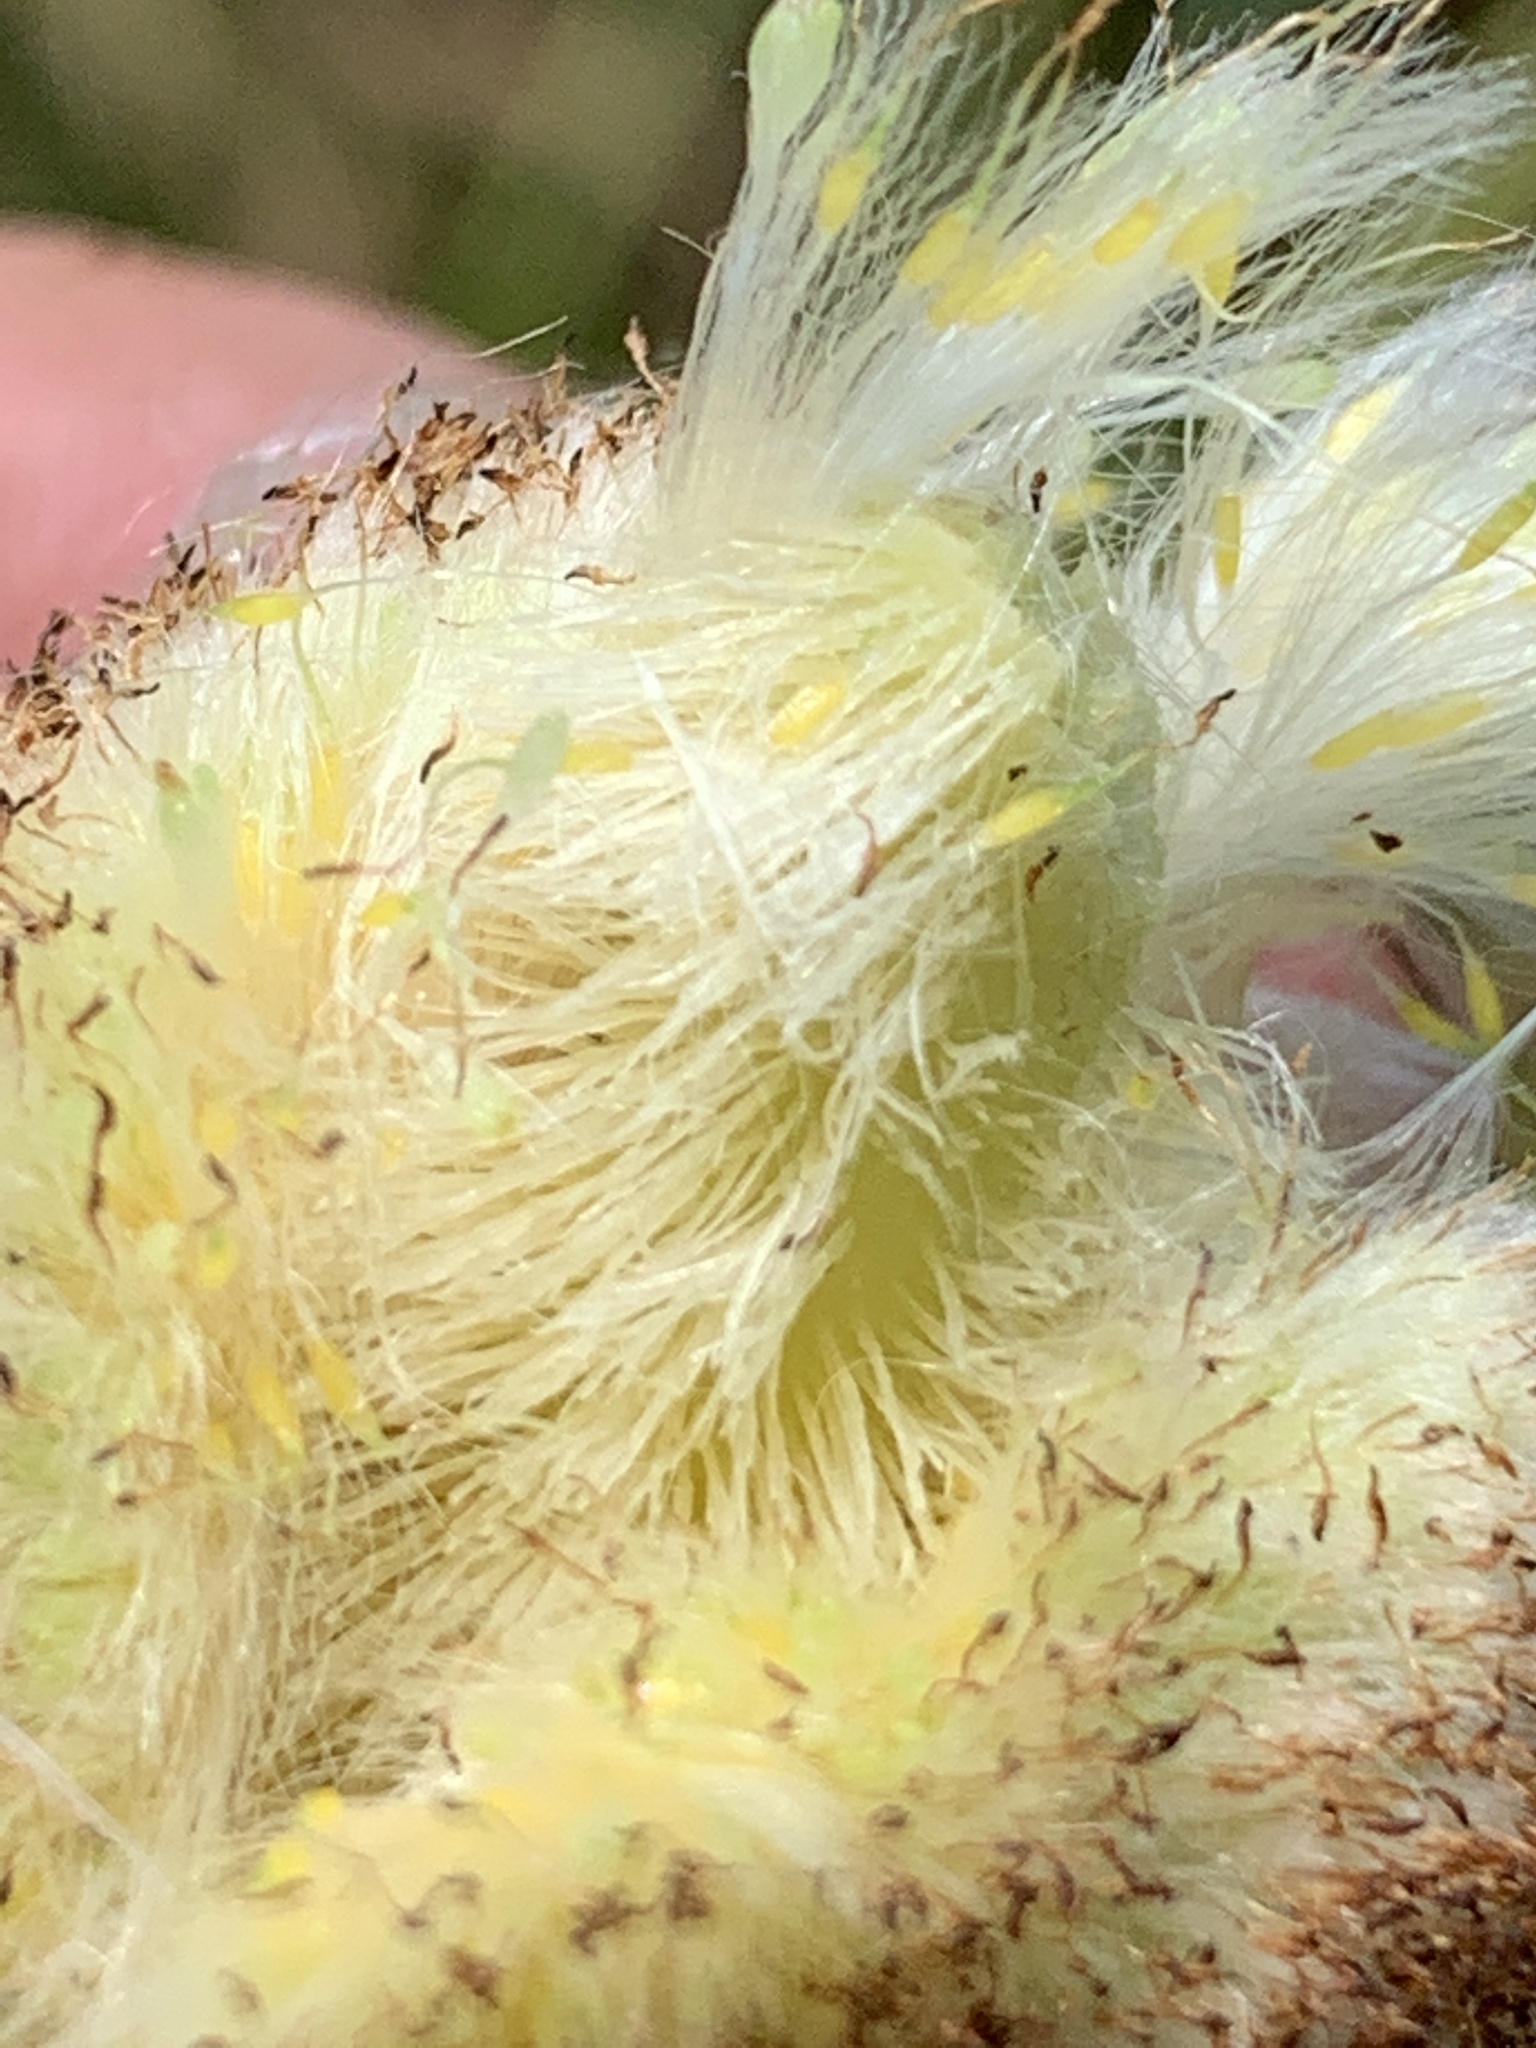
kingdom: Plantae
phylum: Tracheophyta
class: Liliopsida
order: Poales
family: Typhaceae
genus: Typha
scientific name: Typha latifolia
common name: Broadleaf cattail
